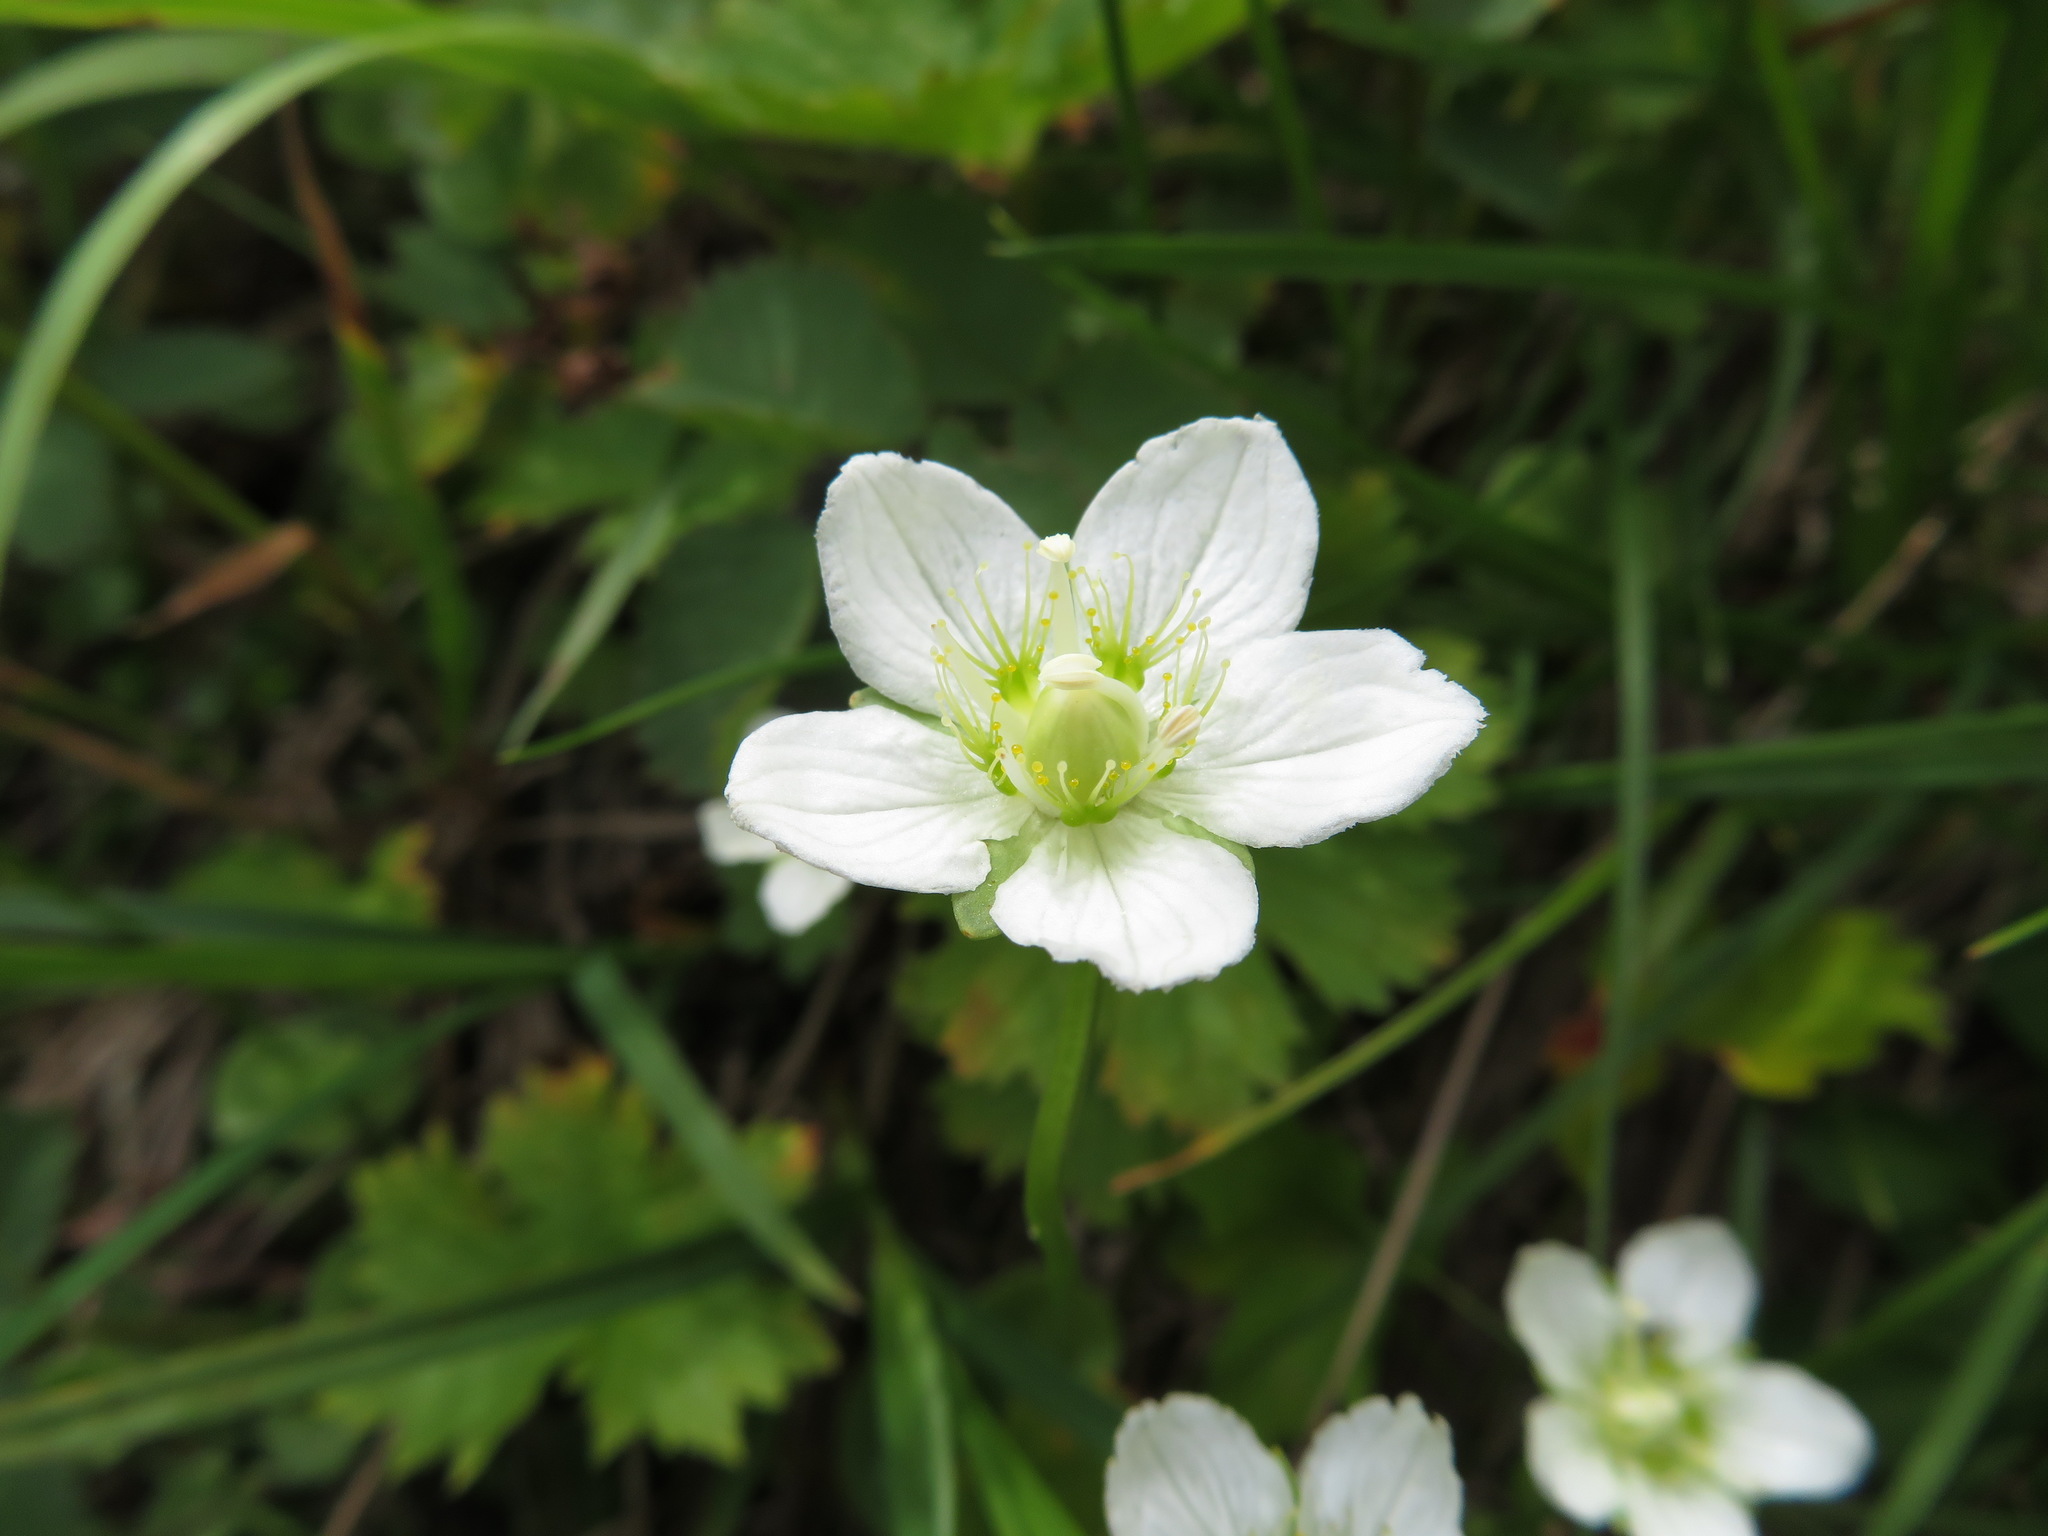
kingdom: Plantae
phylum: Tracheophyta
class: Magnoliopsida
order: Celastrales
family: Parnassiaceae
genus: Parnassia
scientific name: Parnassia palustris
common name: Grass-of-parnassus
